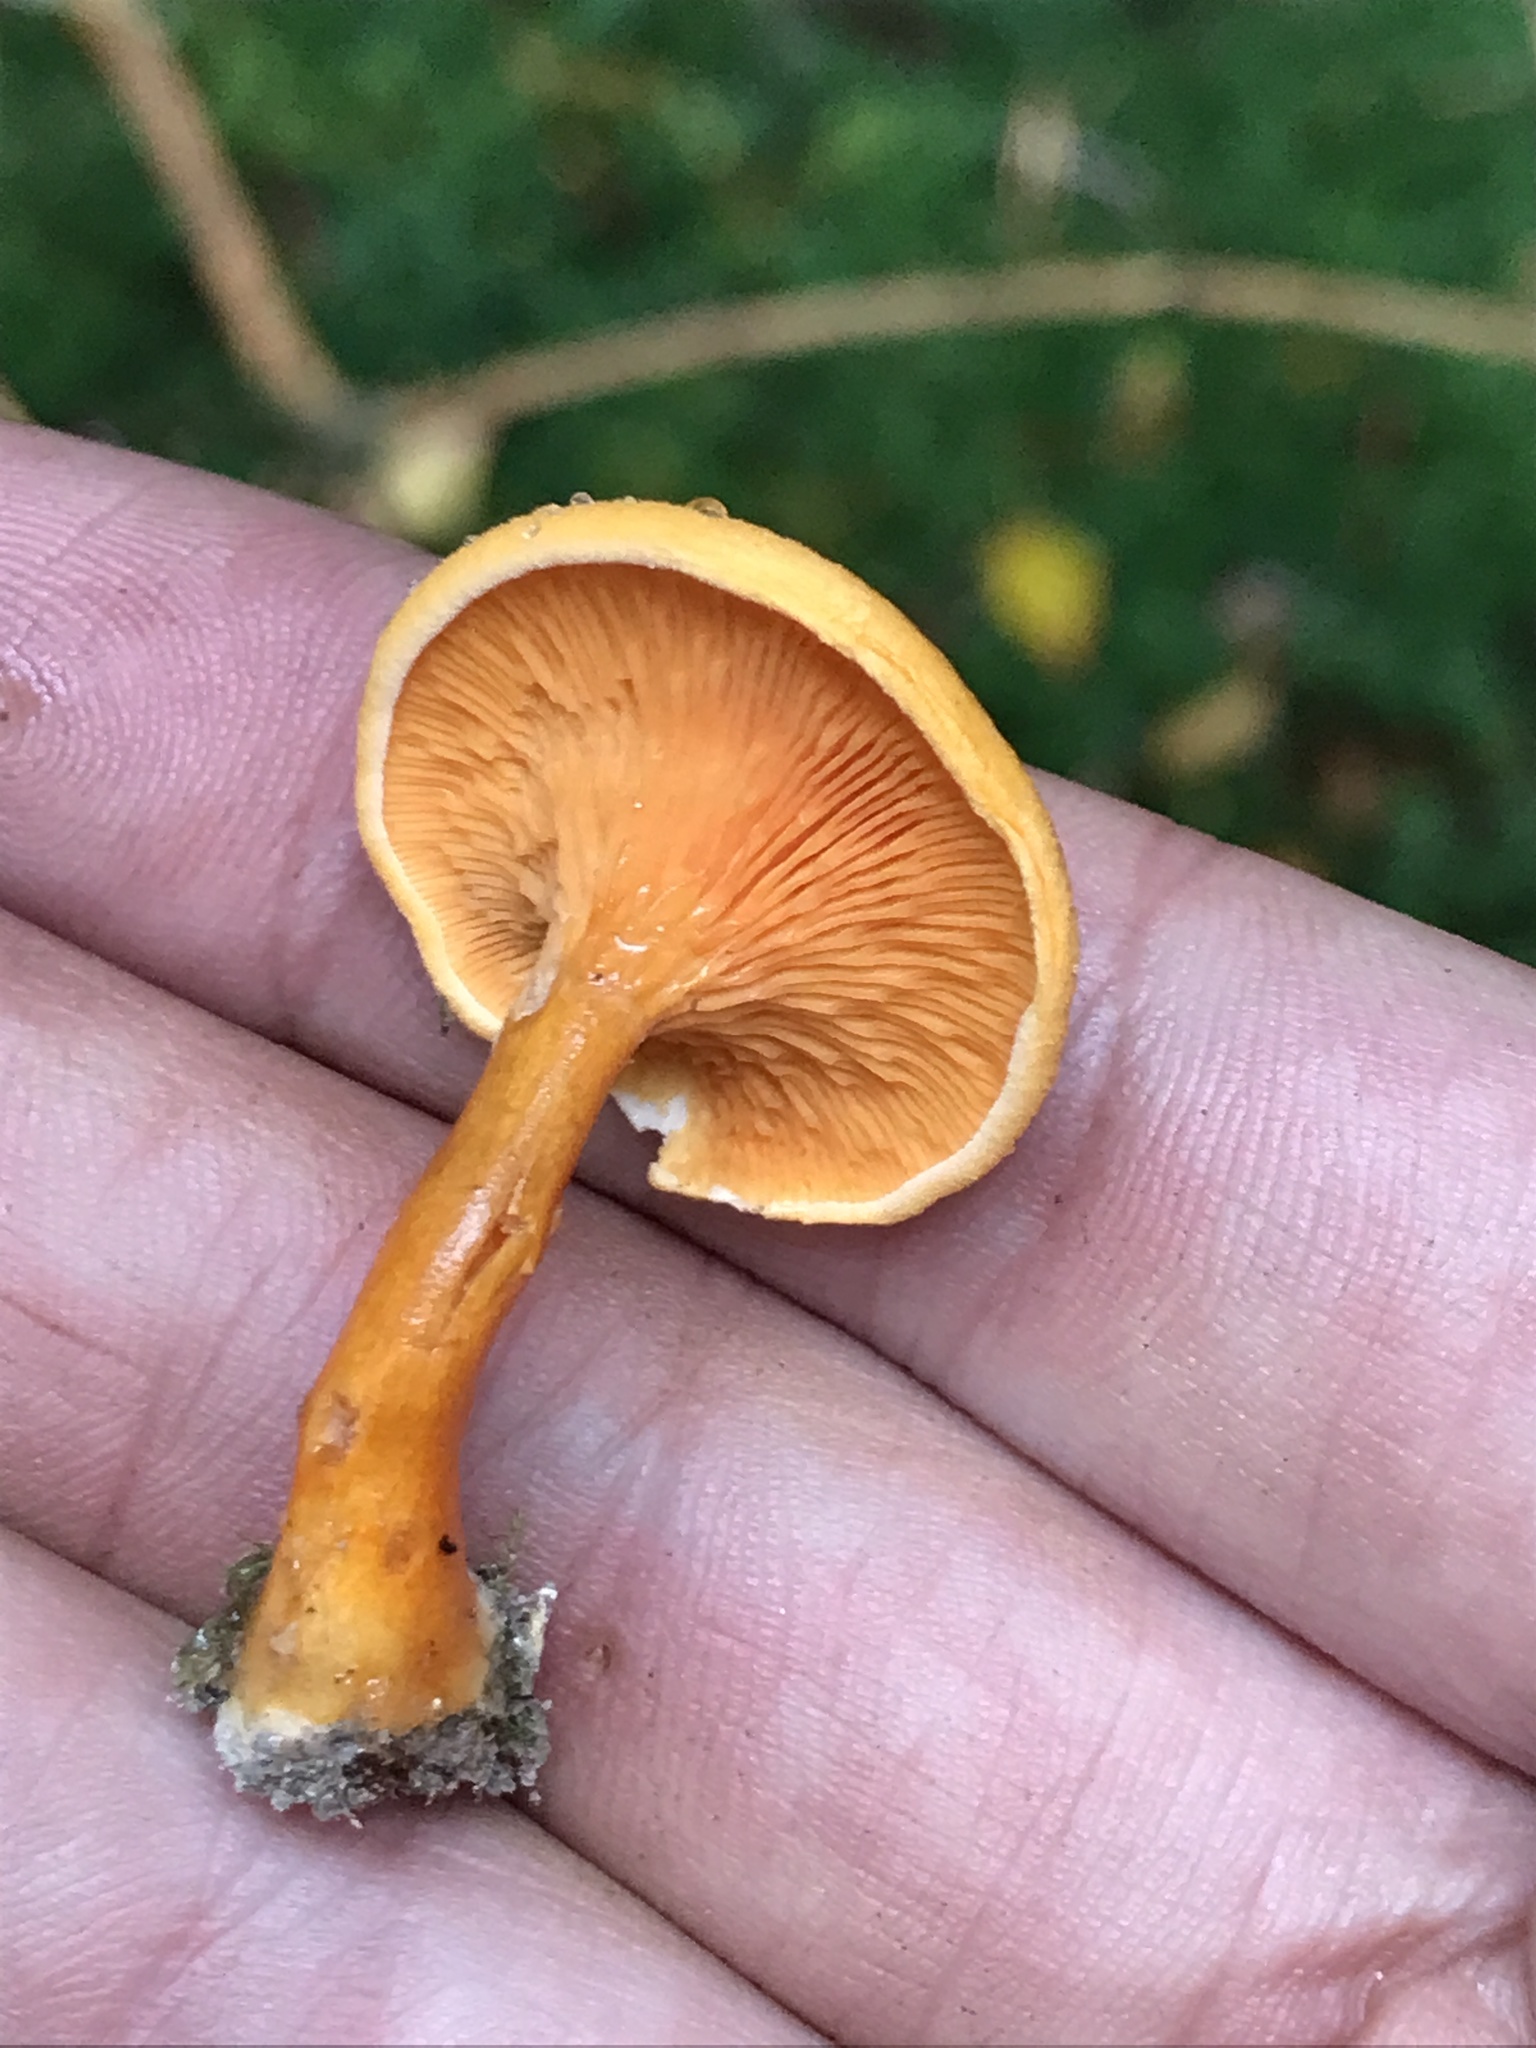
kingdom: Fungi
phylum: Basidiomycota
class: Agaricomycetes
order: Boletales
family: Hygrophoropsidaceae
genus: Hygrophoropsis
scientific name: Hygrophoropsis aurantiaca
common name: False chanterelle
